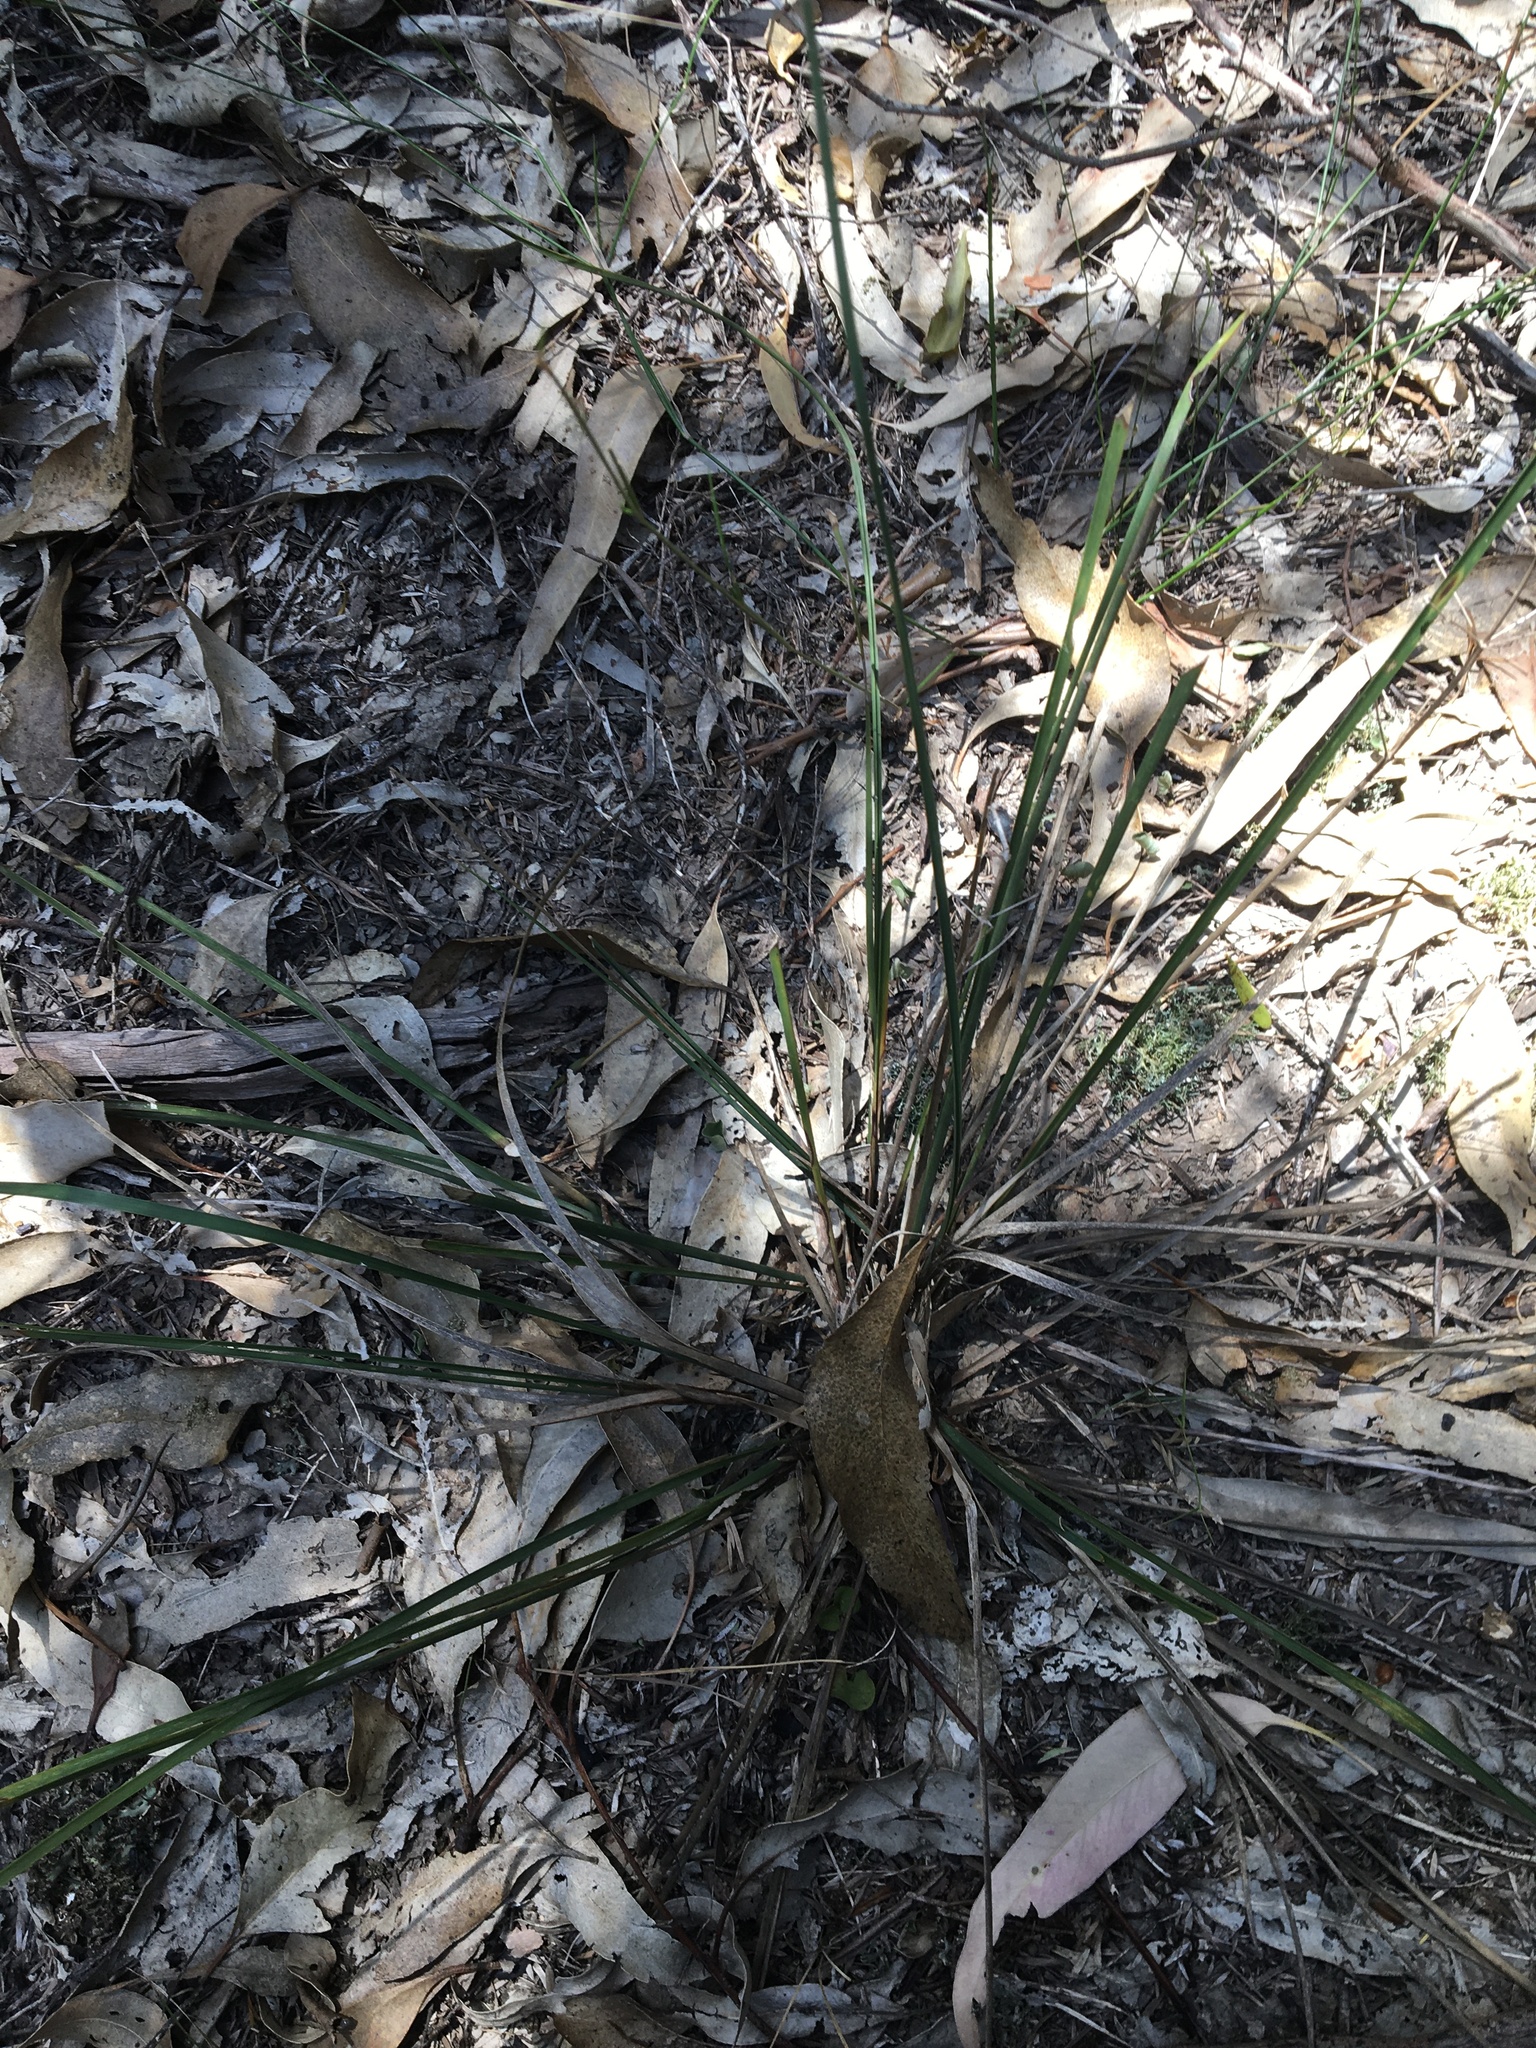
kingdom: Plantae
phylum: Tracheophyta
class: Liliopsida
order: Asparagales
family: Asparagaceae
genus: Lomandra
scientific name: Lomandra multiflora
